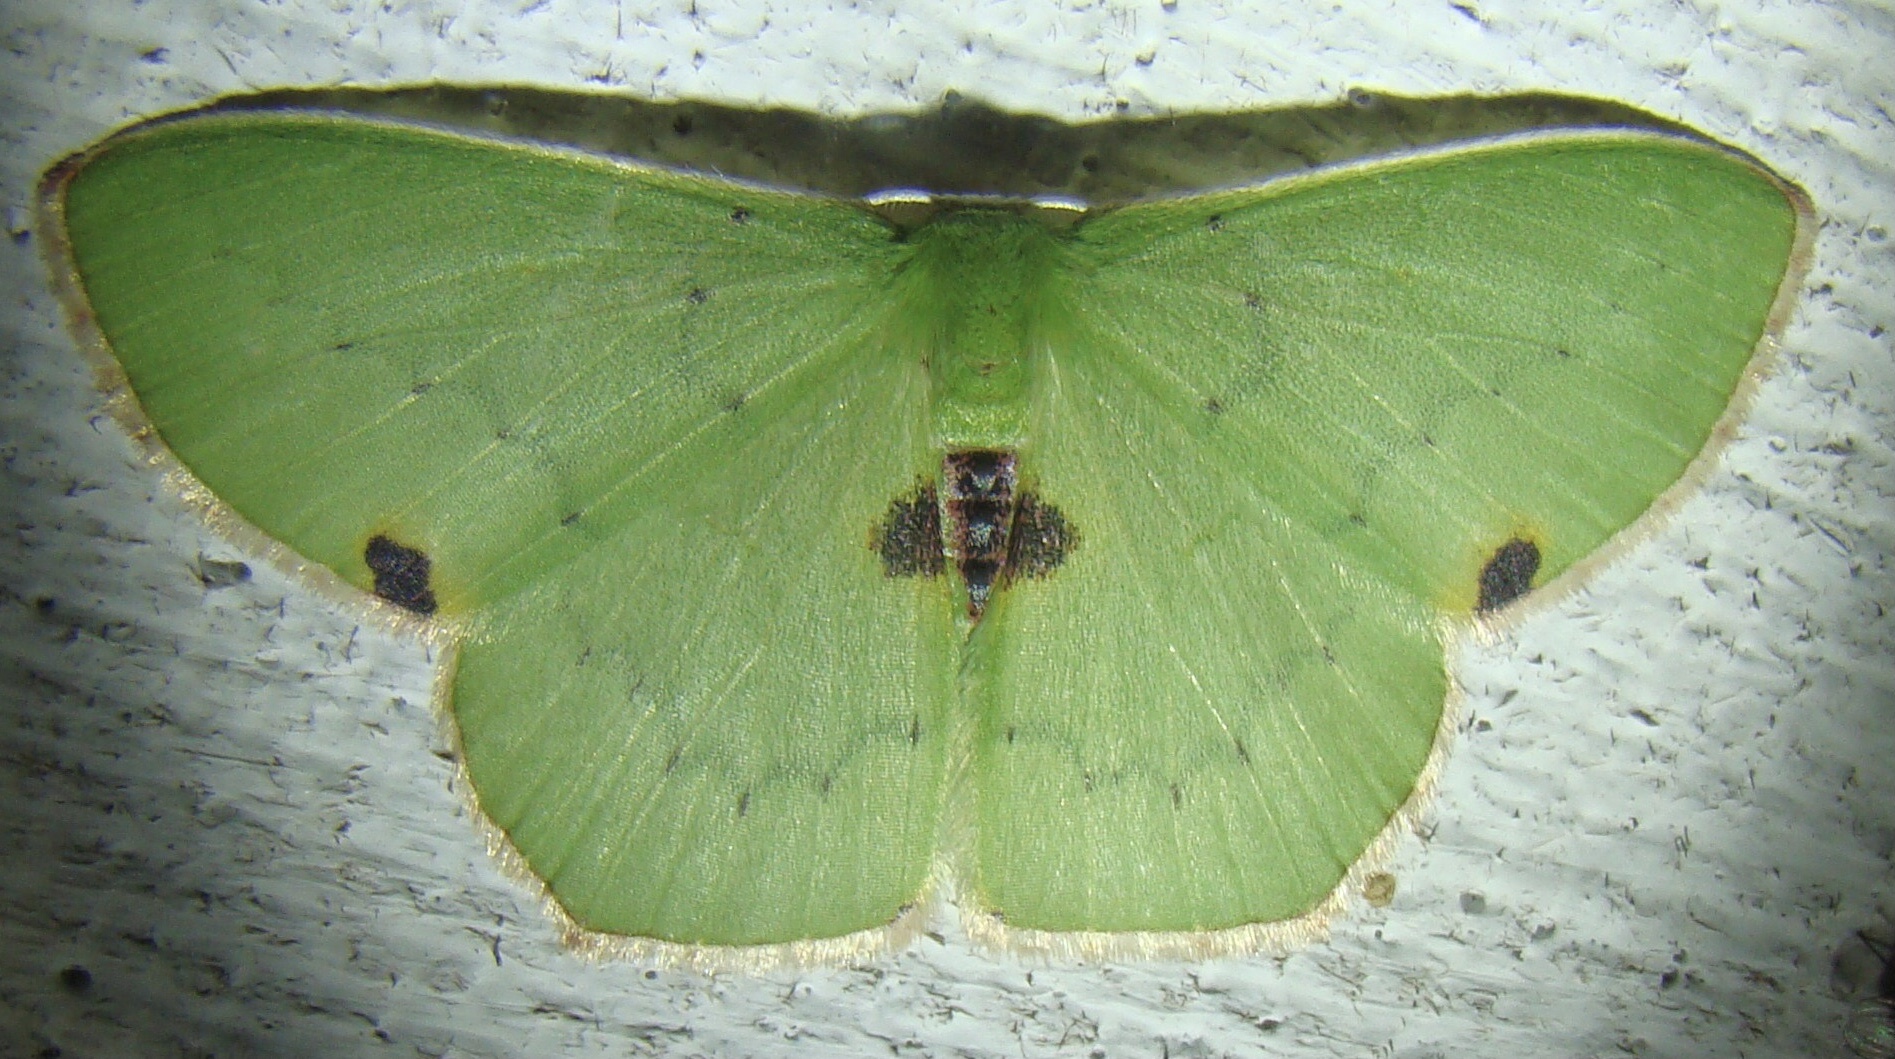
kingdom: Animalia
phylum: Arthropoda
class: Insecta
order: Lepidoptera
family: Geometridae
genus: Lophorrhachia
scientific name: Lophorrhachia rubricorpus
